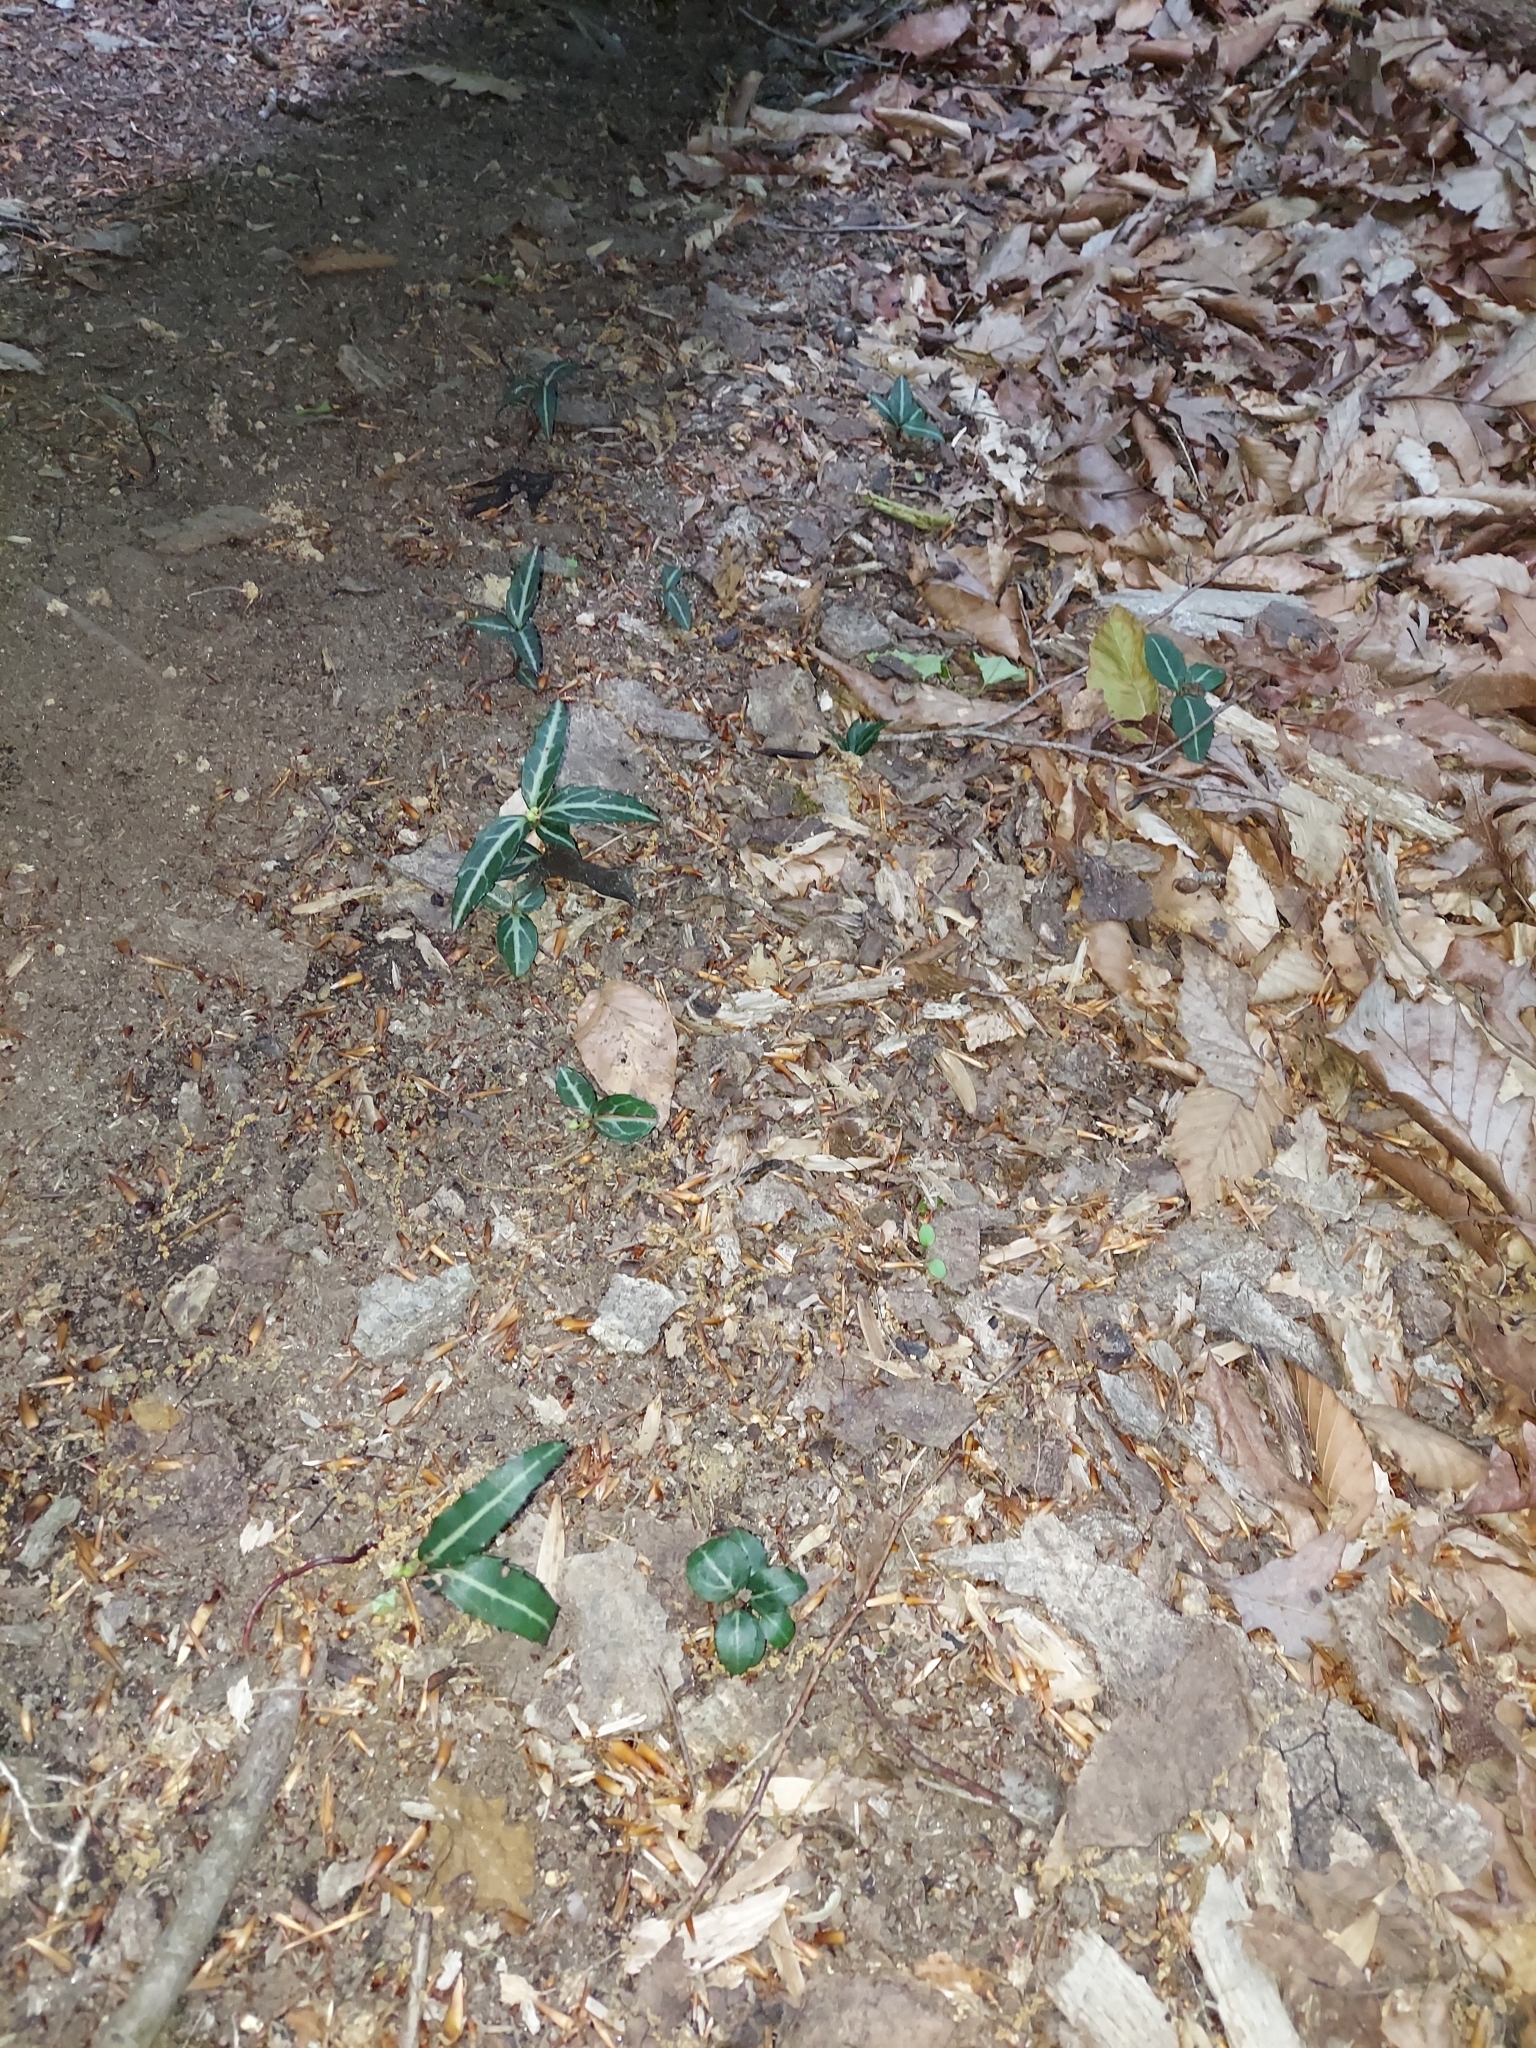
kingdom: Plantae
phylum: Tracheophyta
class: Magnoliopsida
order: Ericales
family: Ericaceae
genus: Chimaphila
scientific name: Chimaphila maculata
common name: Spotted pipsissewa
